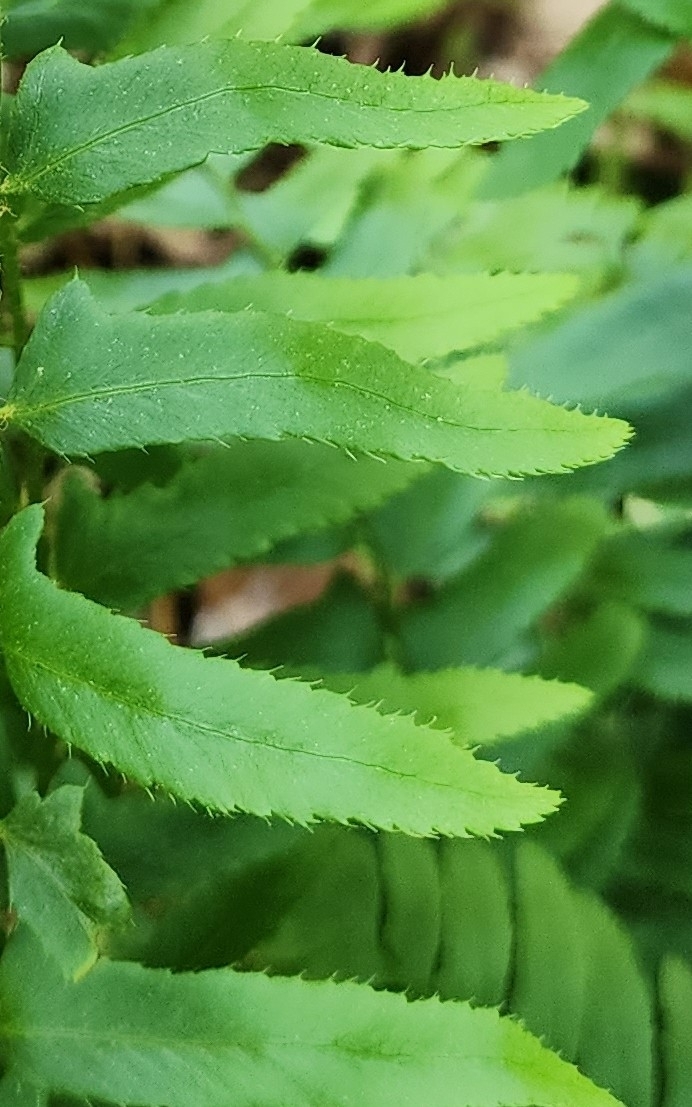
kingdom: Plantae
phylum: Tracheophyta
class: Polypodiopsida
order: Polypodiales
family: Dryopteridaceae
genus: Polystichum
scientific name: Polystichum acrostichoides
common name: Christmas fern
